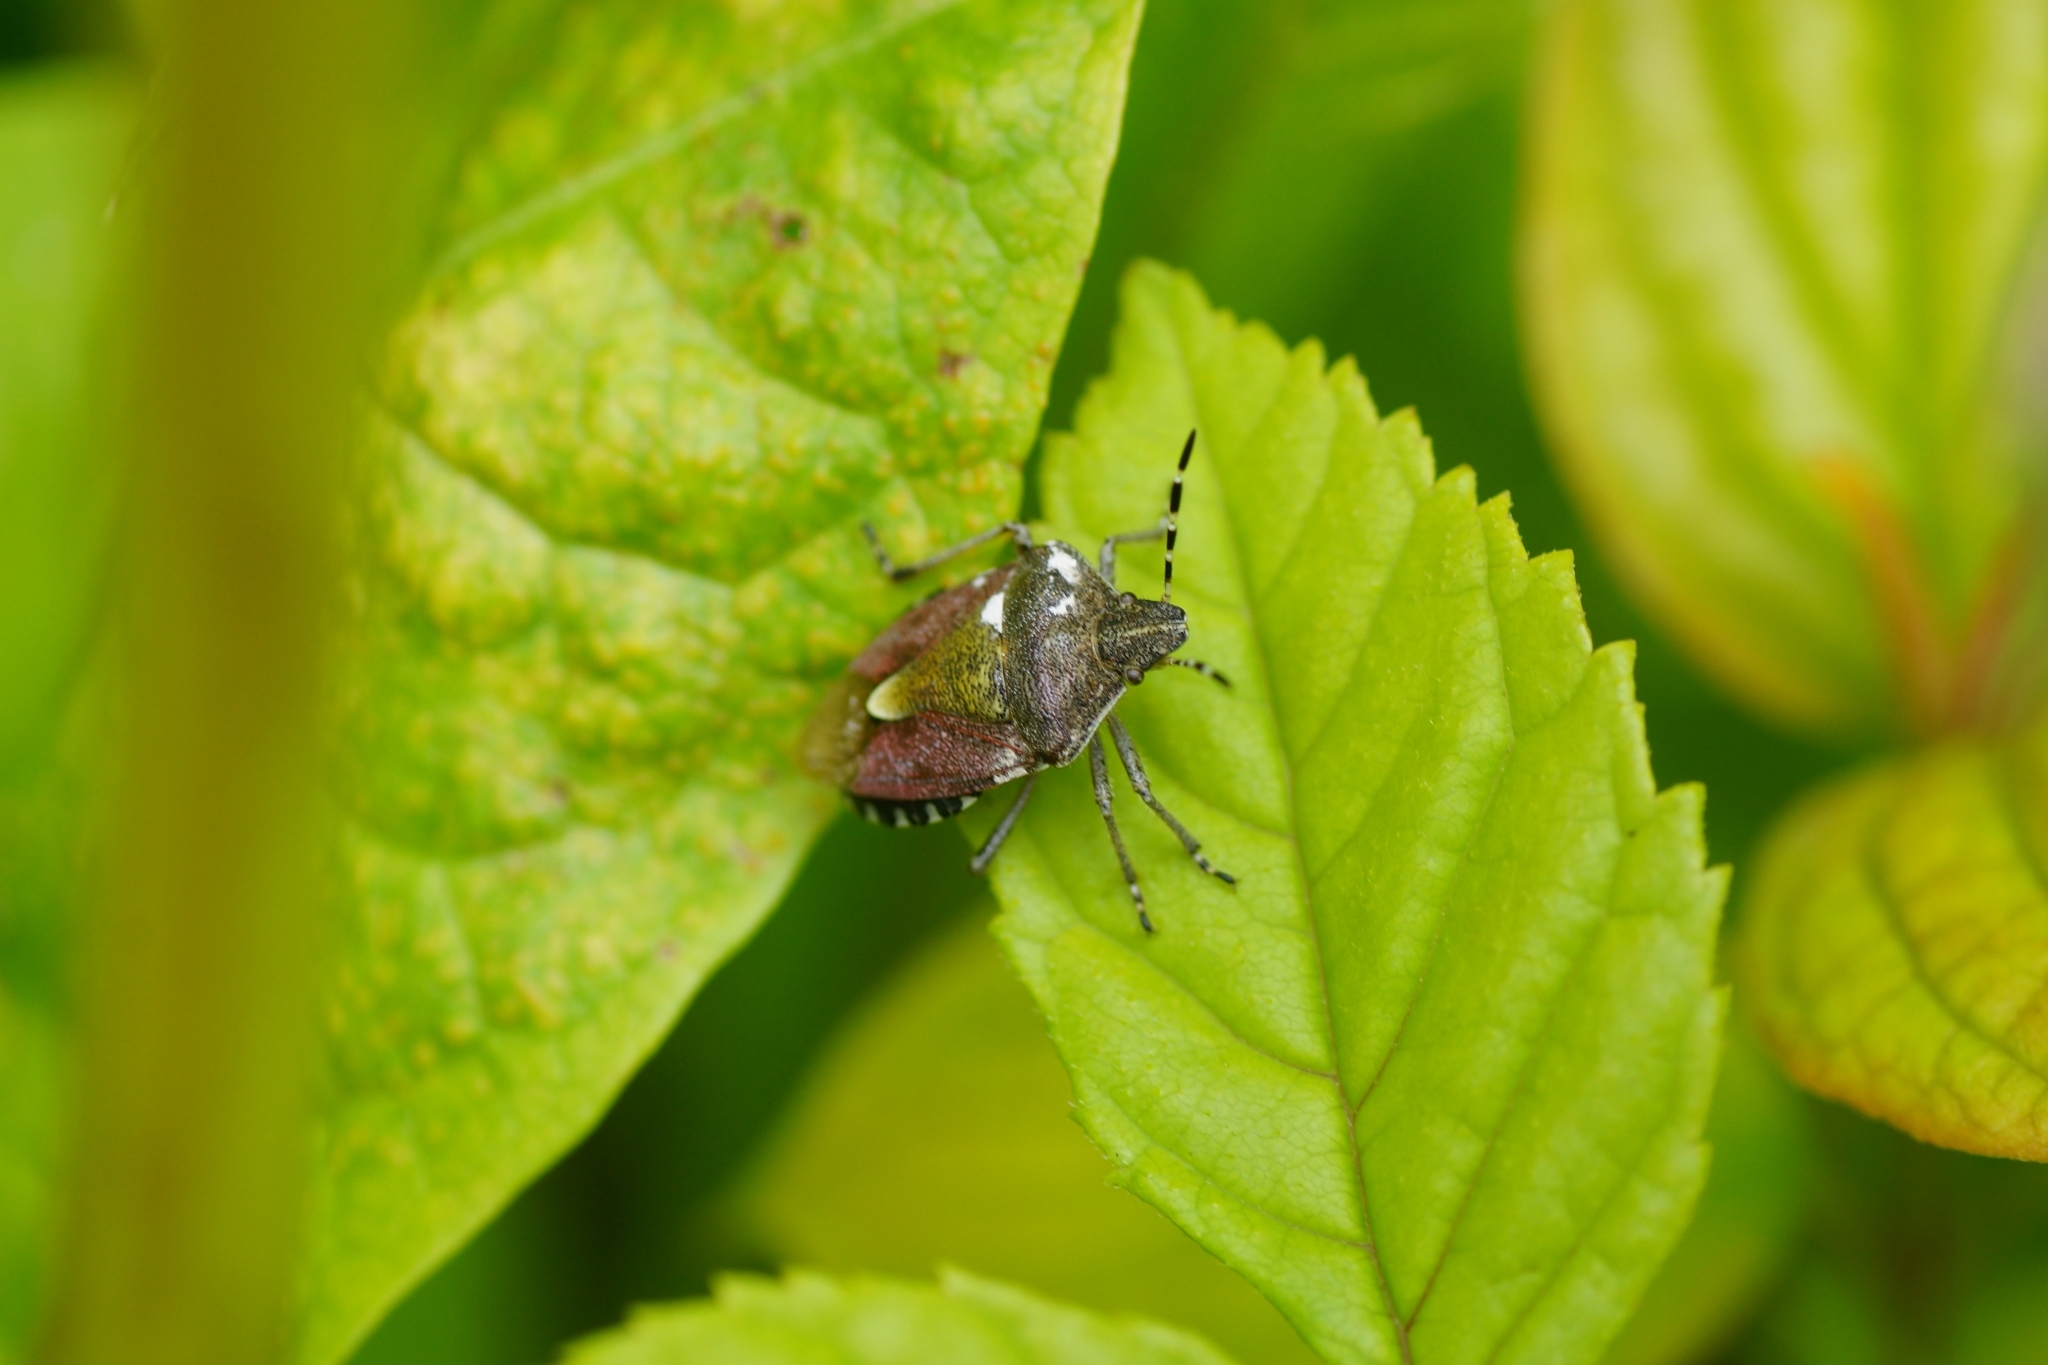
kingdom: Animalia
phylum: Arthropoda
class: Insecta
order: Hemiptera
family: Pentatomidae
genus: Dolycoris
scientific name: Dolycoris baccarum
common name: Sloe bug
